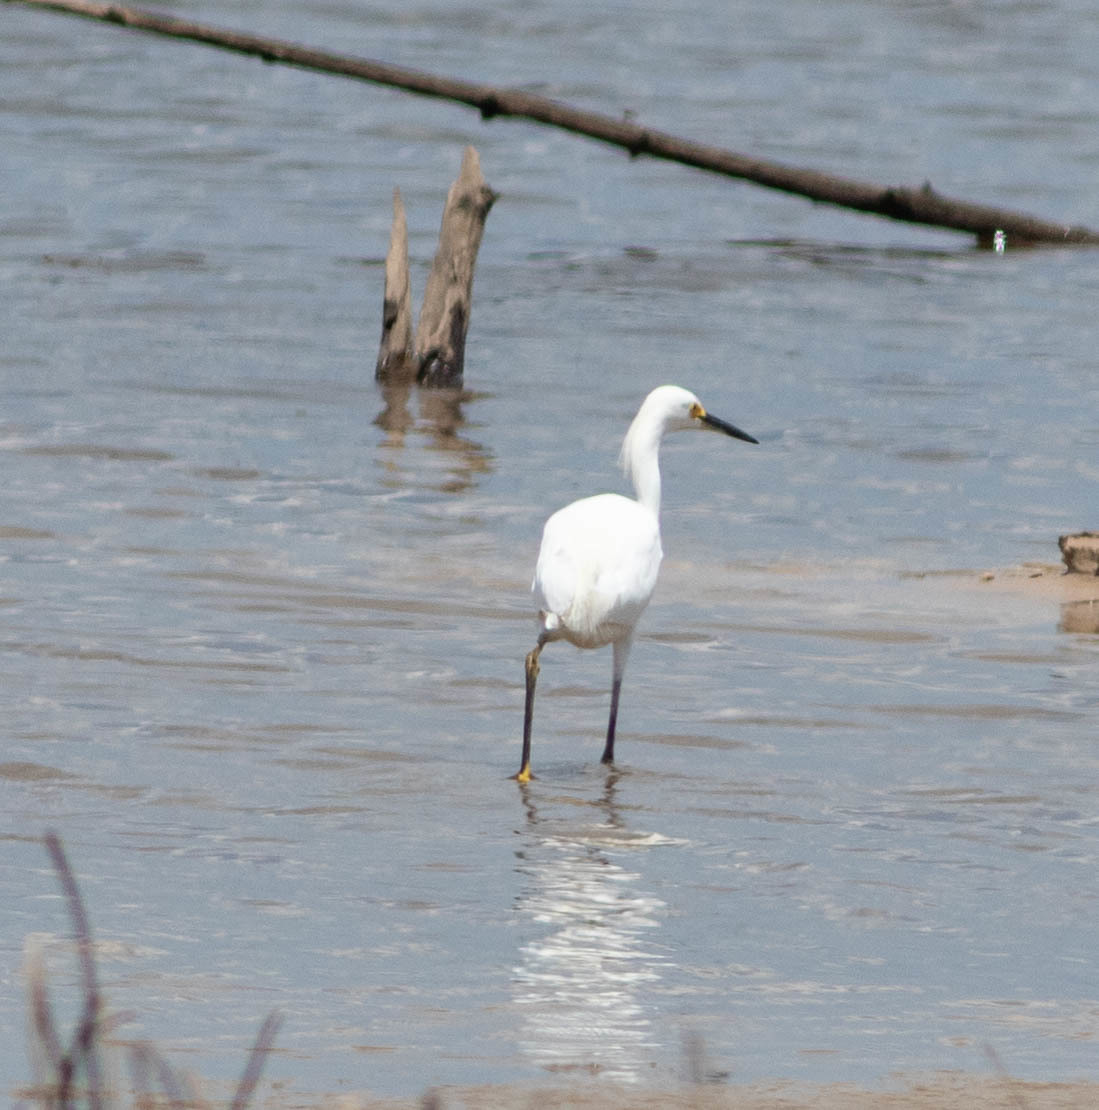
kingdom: Animalia
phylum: Chordata
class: Aves
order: Pelecaniformes
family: Ardeidae
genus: Egretta
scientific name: Egretta thula
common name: Snowy egret
